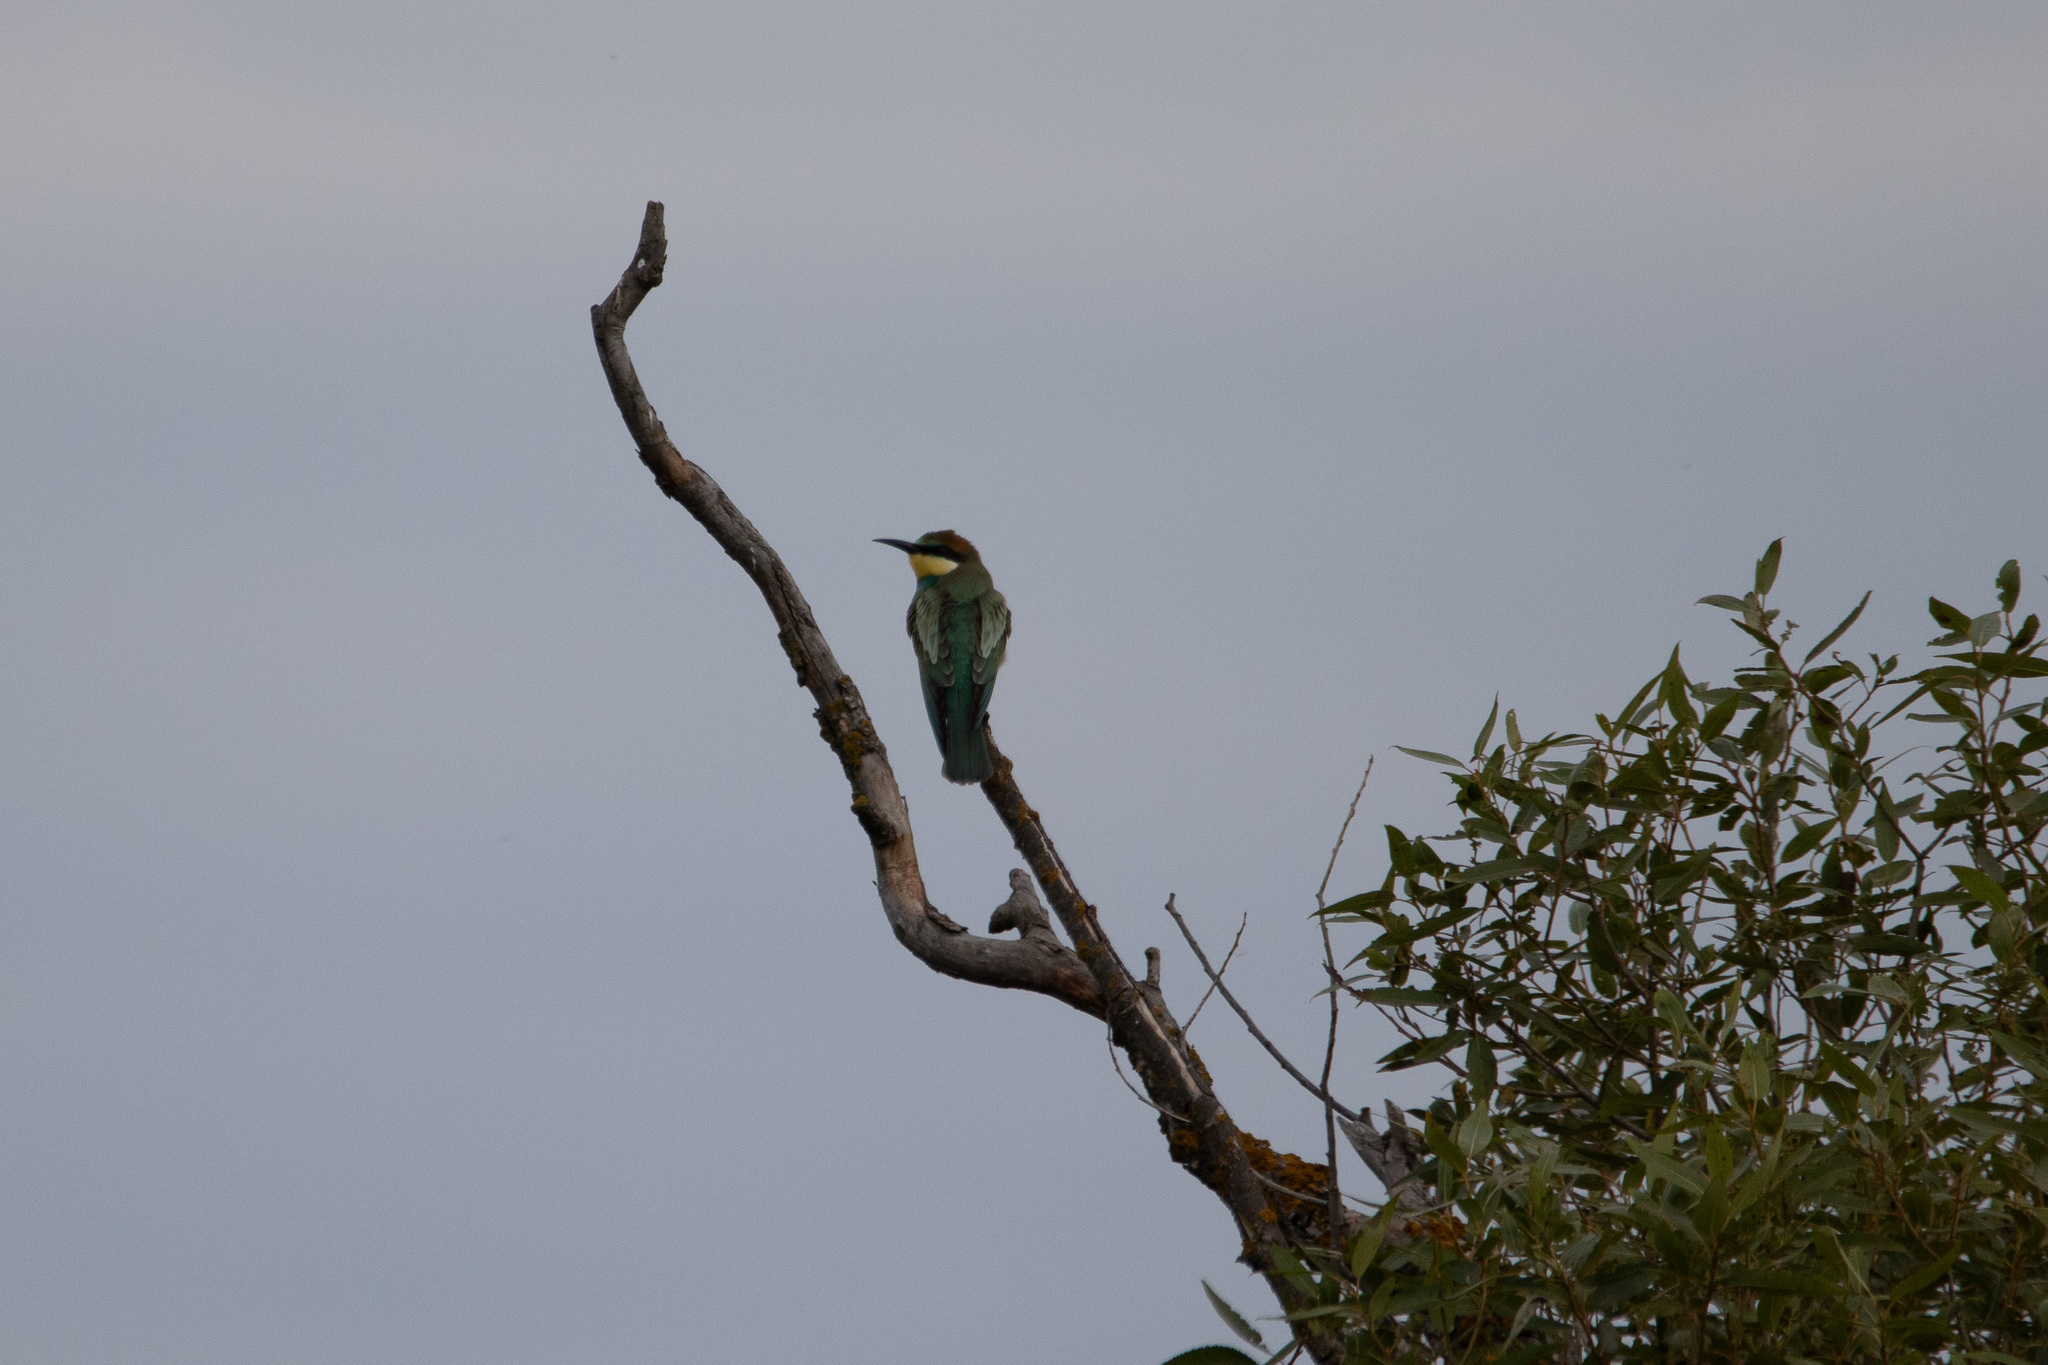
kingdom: Animalia
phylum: Chordata
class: Aves
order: Coraciiformes
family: Meropidae
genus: Merops
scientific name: Merops apiaster
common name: European bee-eater
